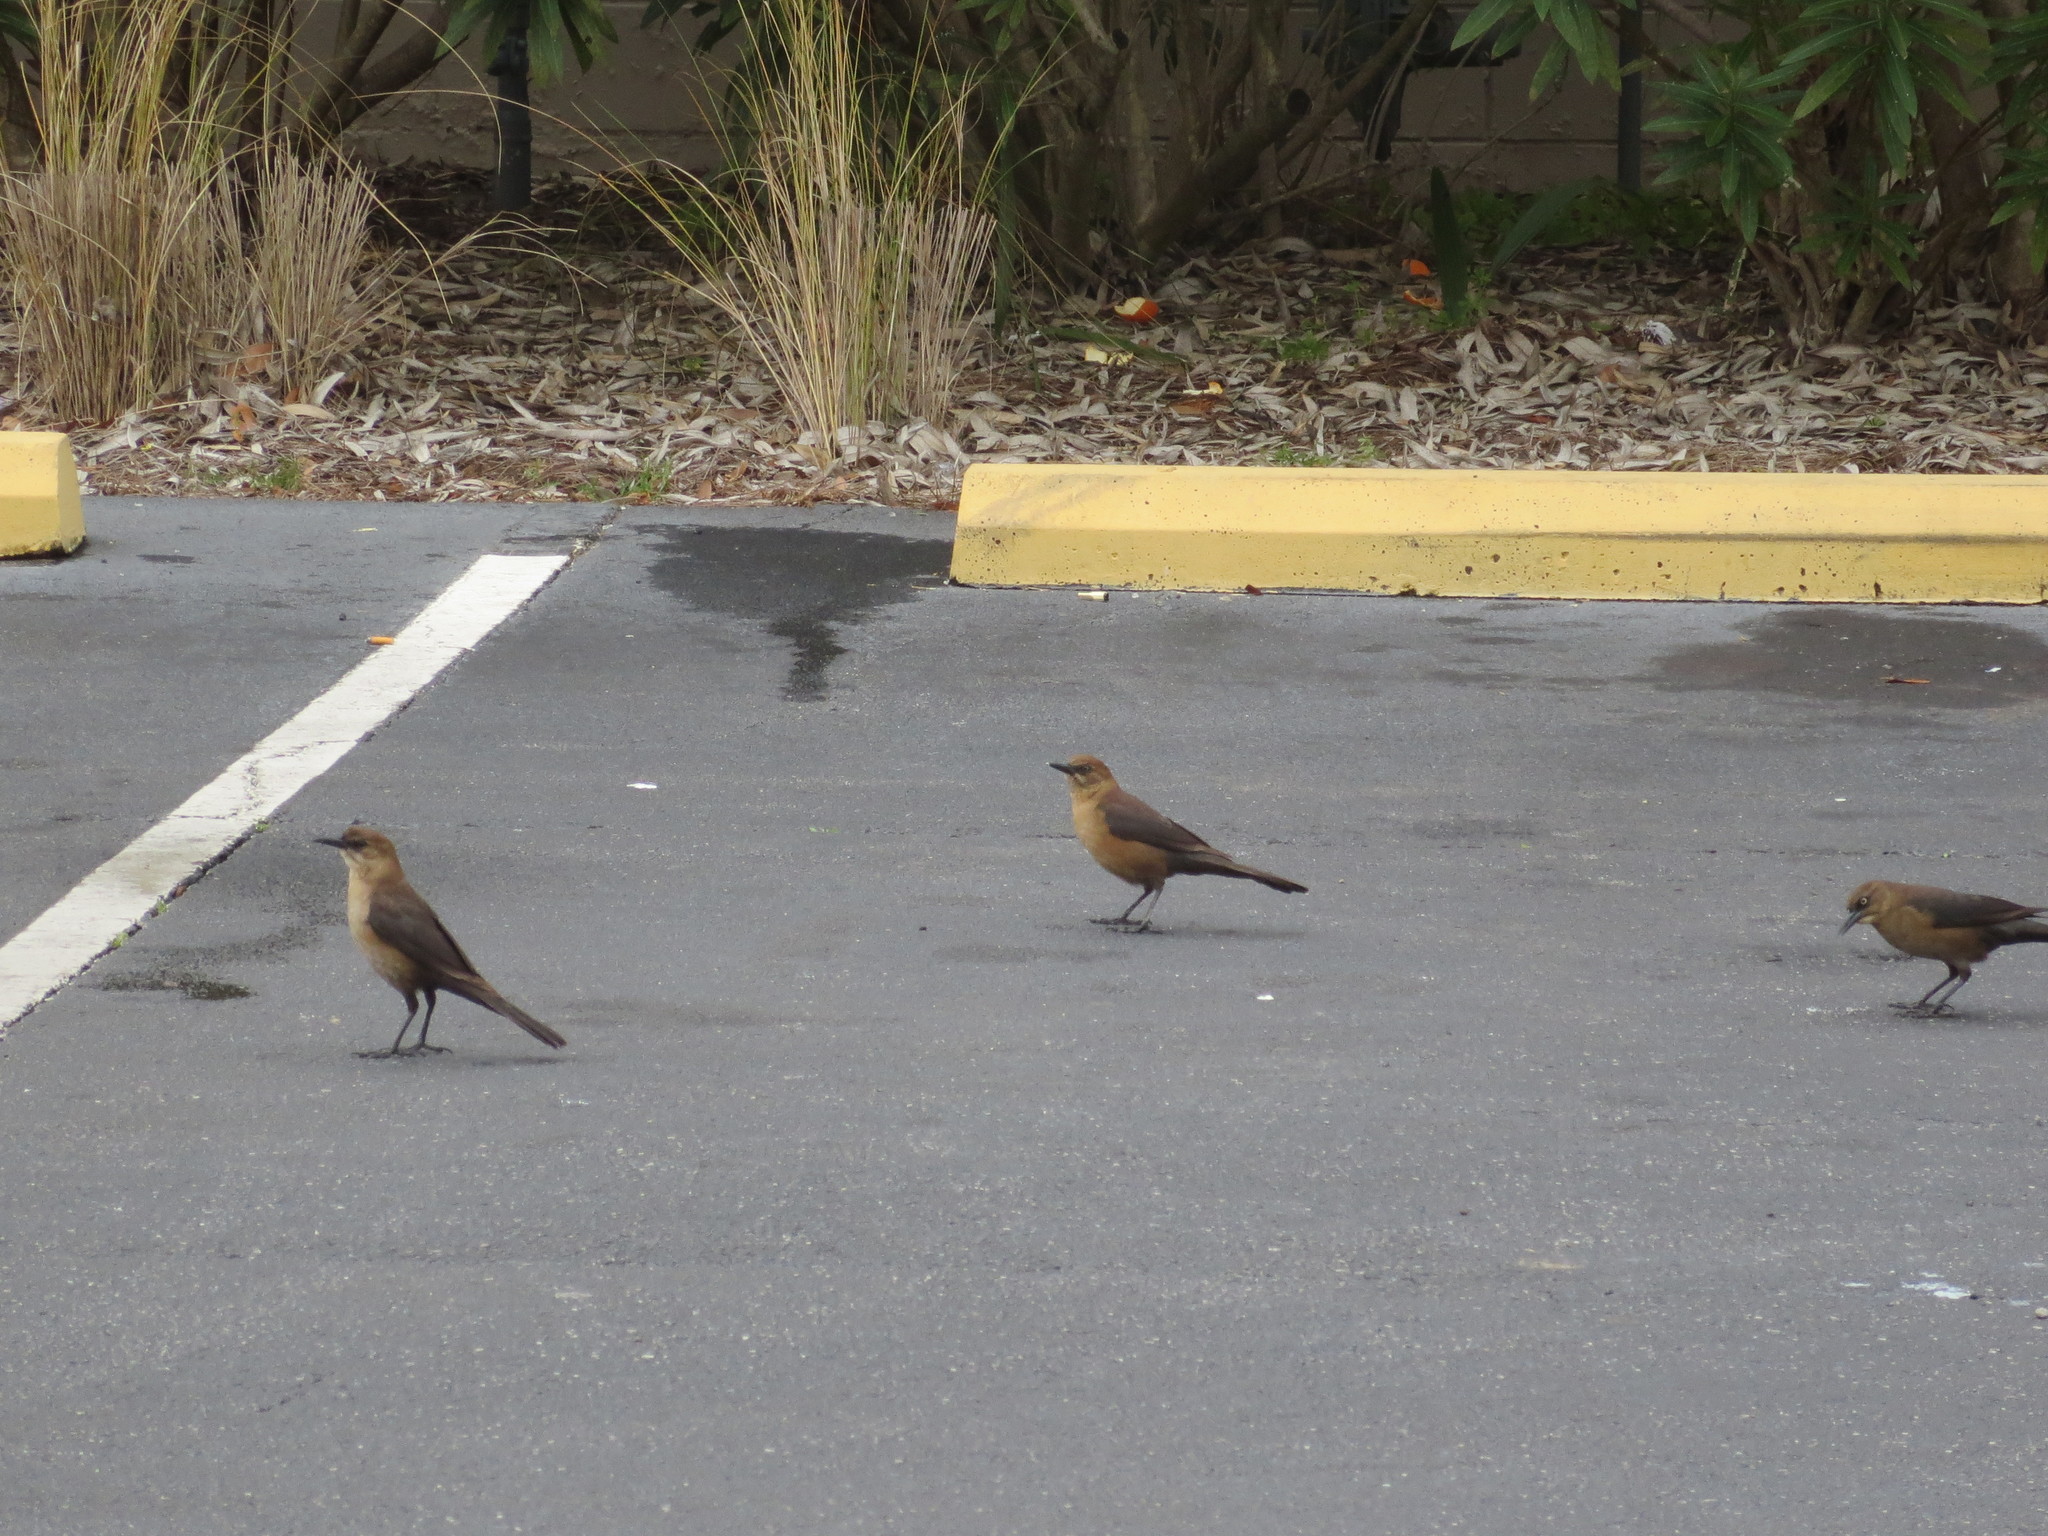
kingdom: Animalia
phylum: Chordata
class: Aves
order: Passeriformes
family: Icteridae
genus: Quiscalus
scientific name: Quiscalus major
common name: Boat-tailed grackle
